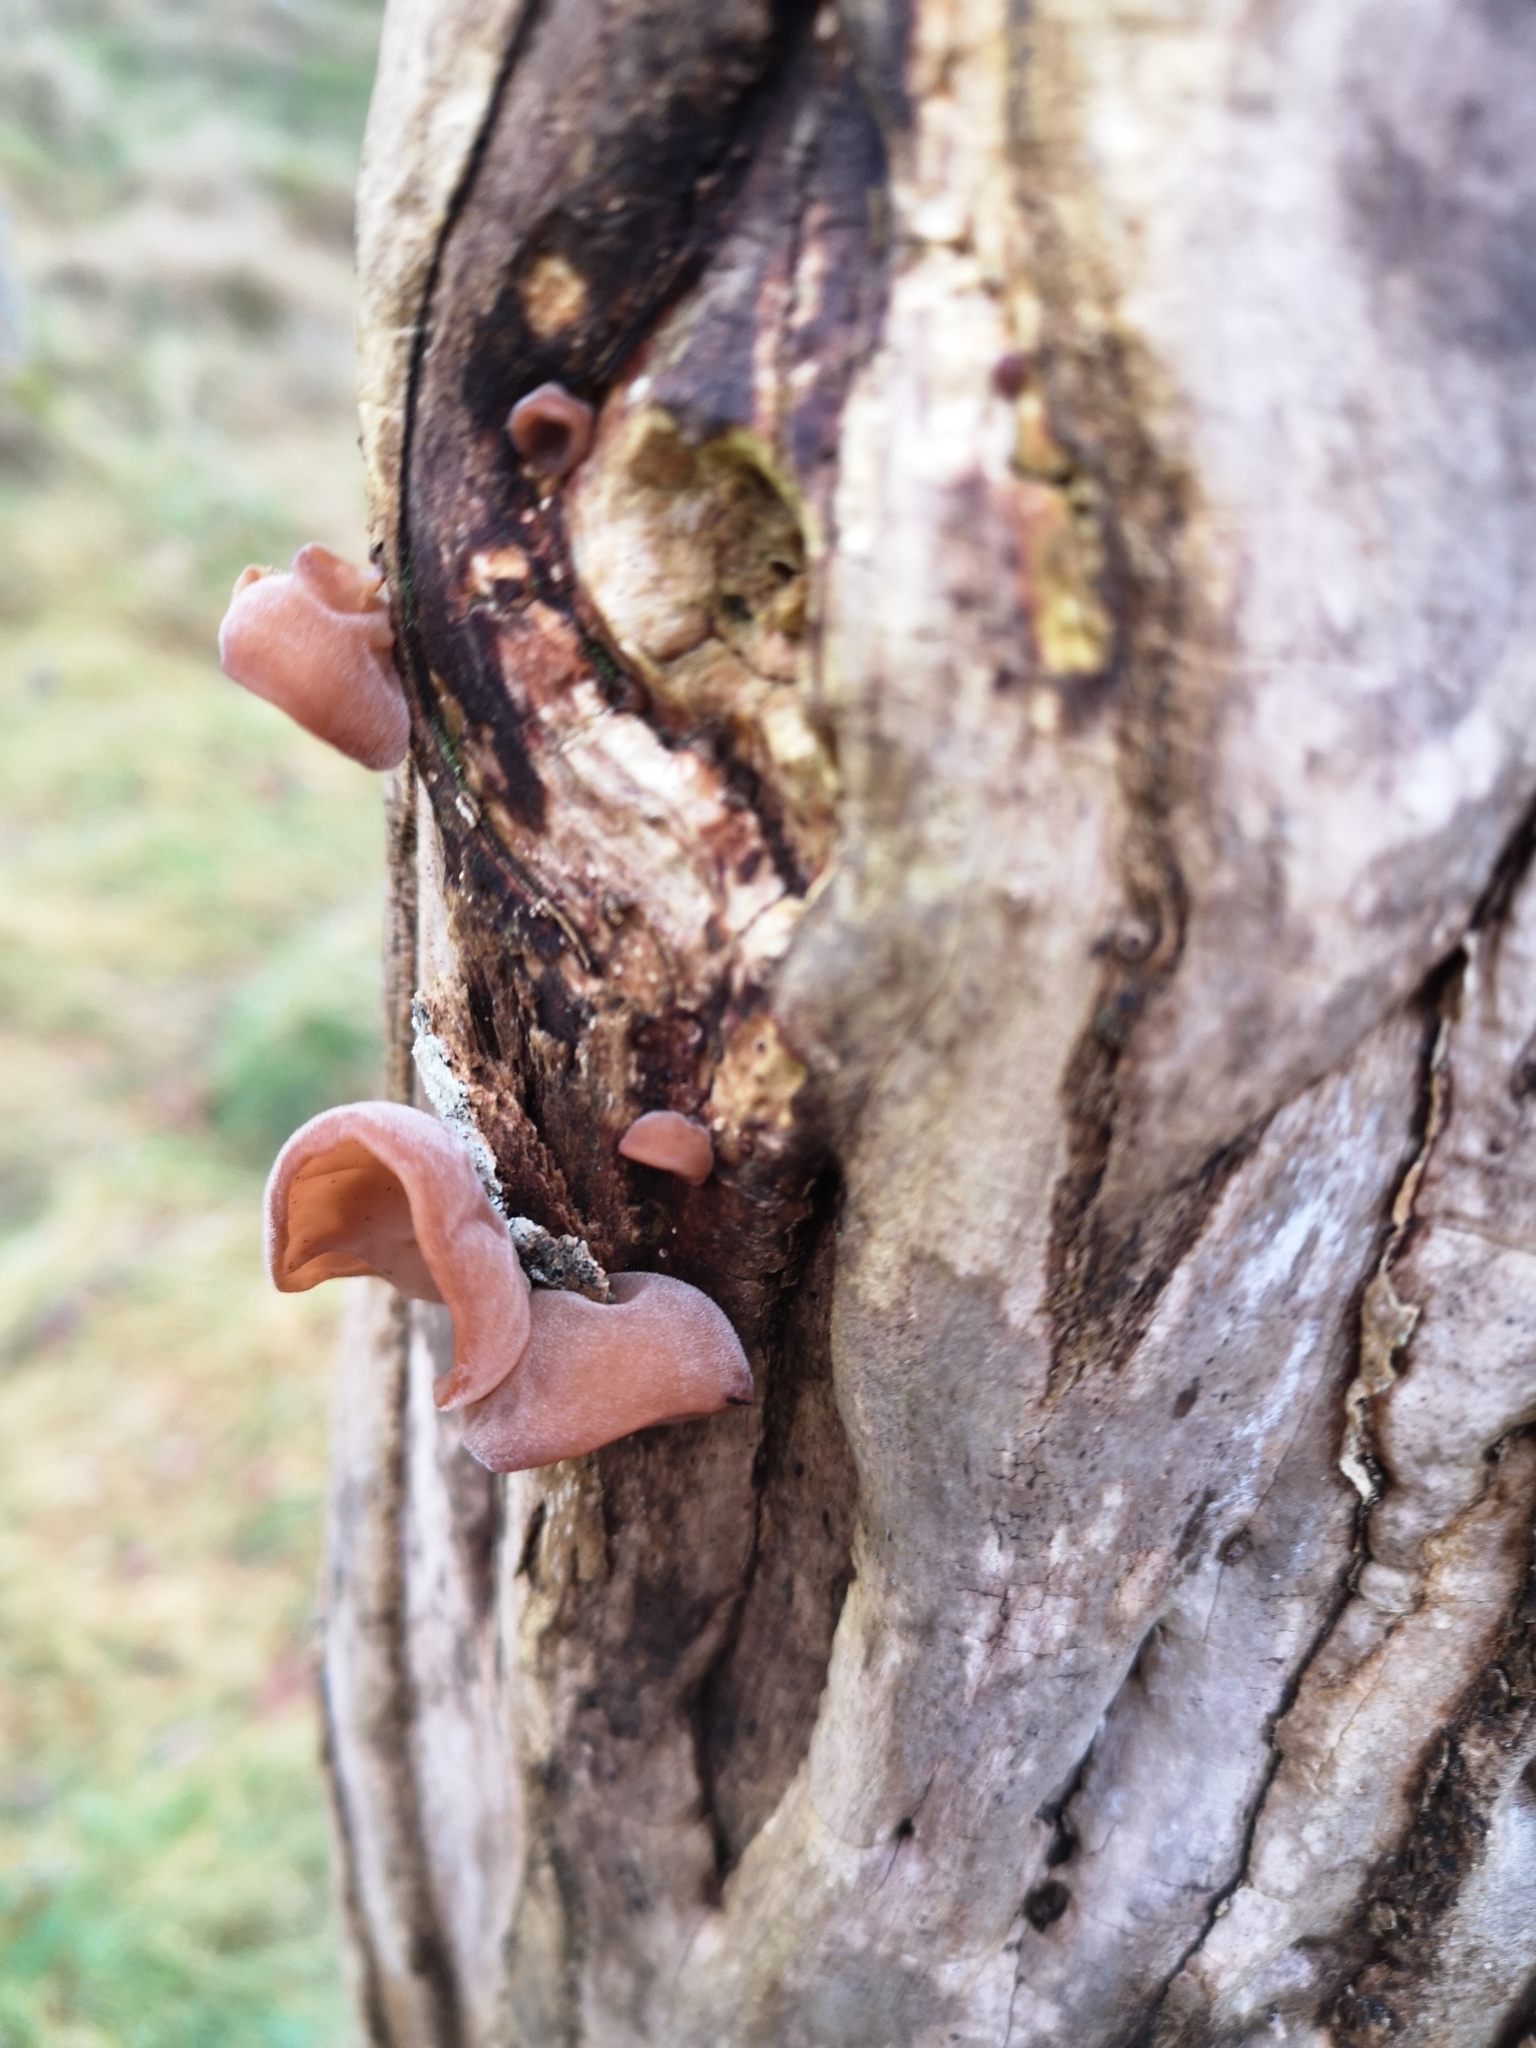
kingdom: Fungi
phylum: Basidiomycota
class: Agaricomycetes
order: Auriculariales
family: Auriculariaceae
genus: Auricularia
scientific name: Auricularia auricula-judae
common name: Jelly ear
